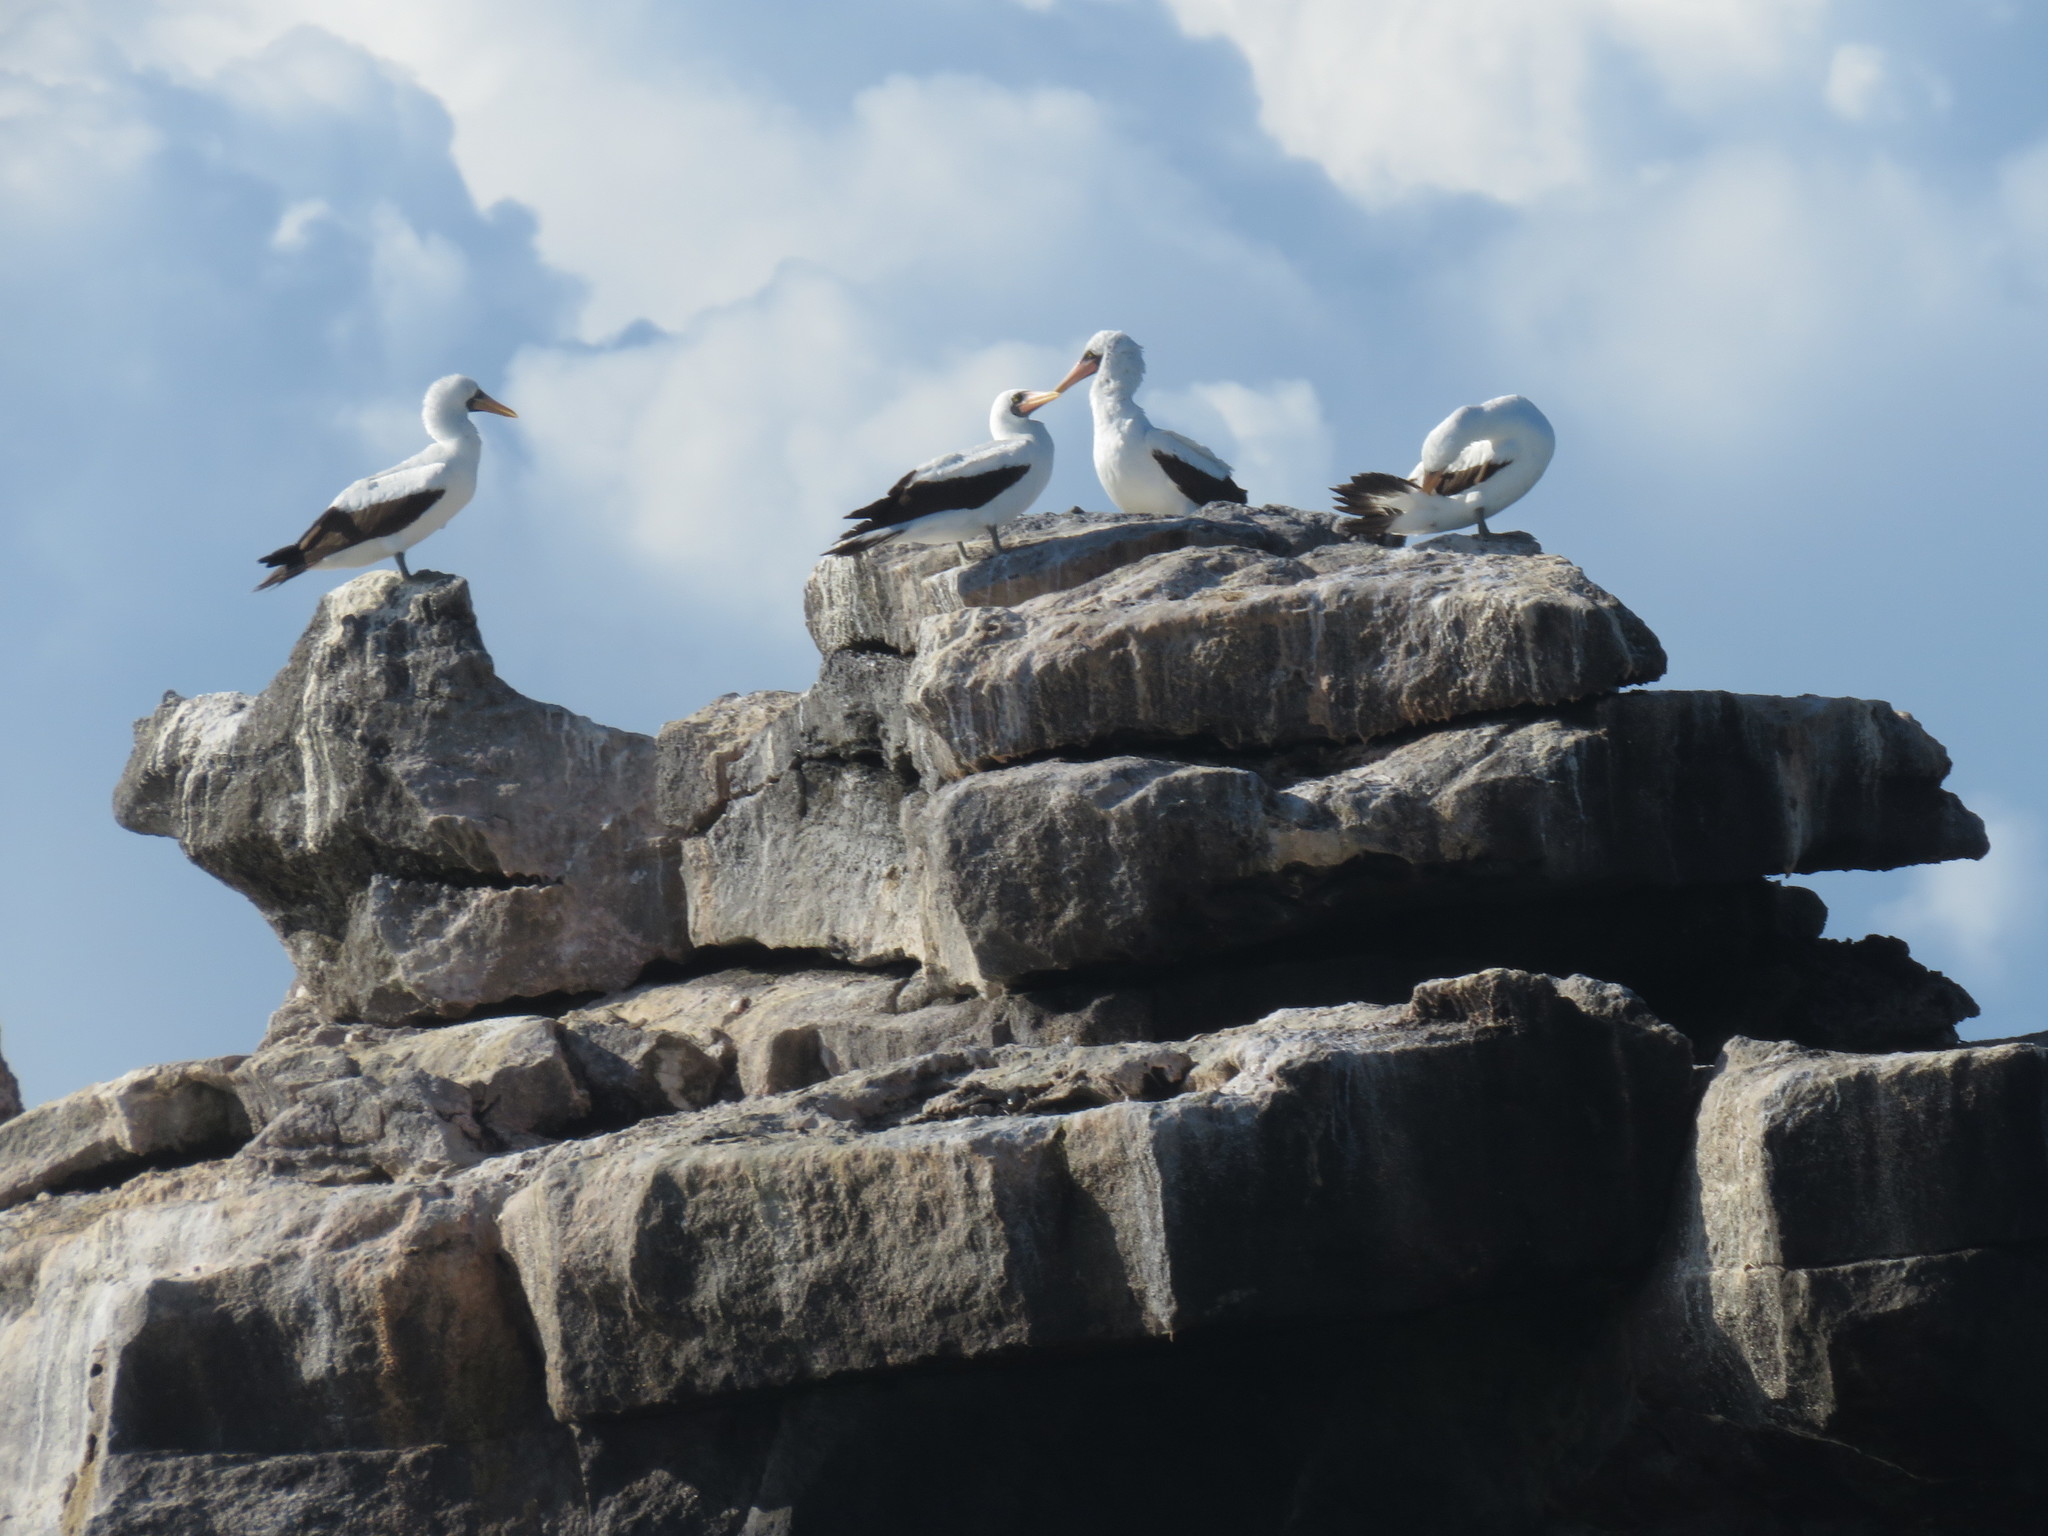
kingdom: Animalia
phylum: Chordata
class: Aves
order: Suliformes
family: Sulidae
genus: Sula
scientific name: Sula granti
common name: Nazca booby
